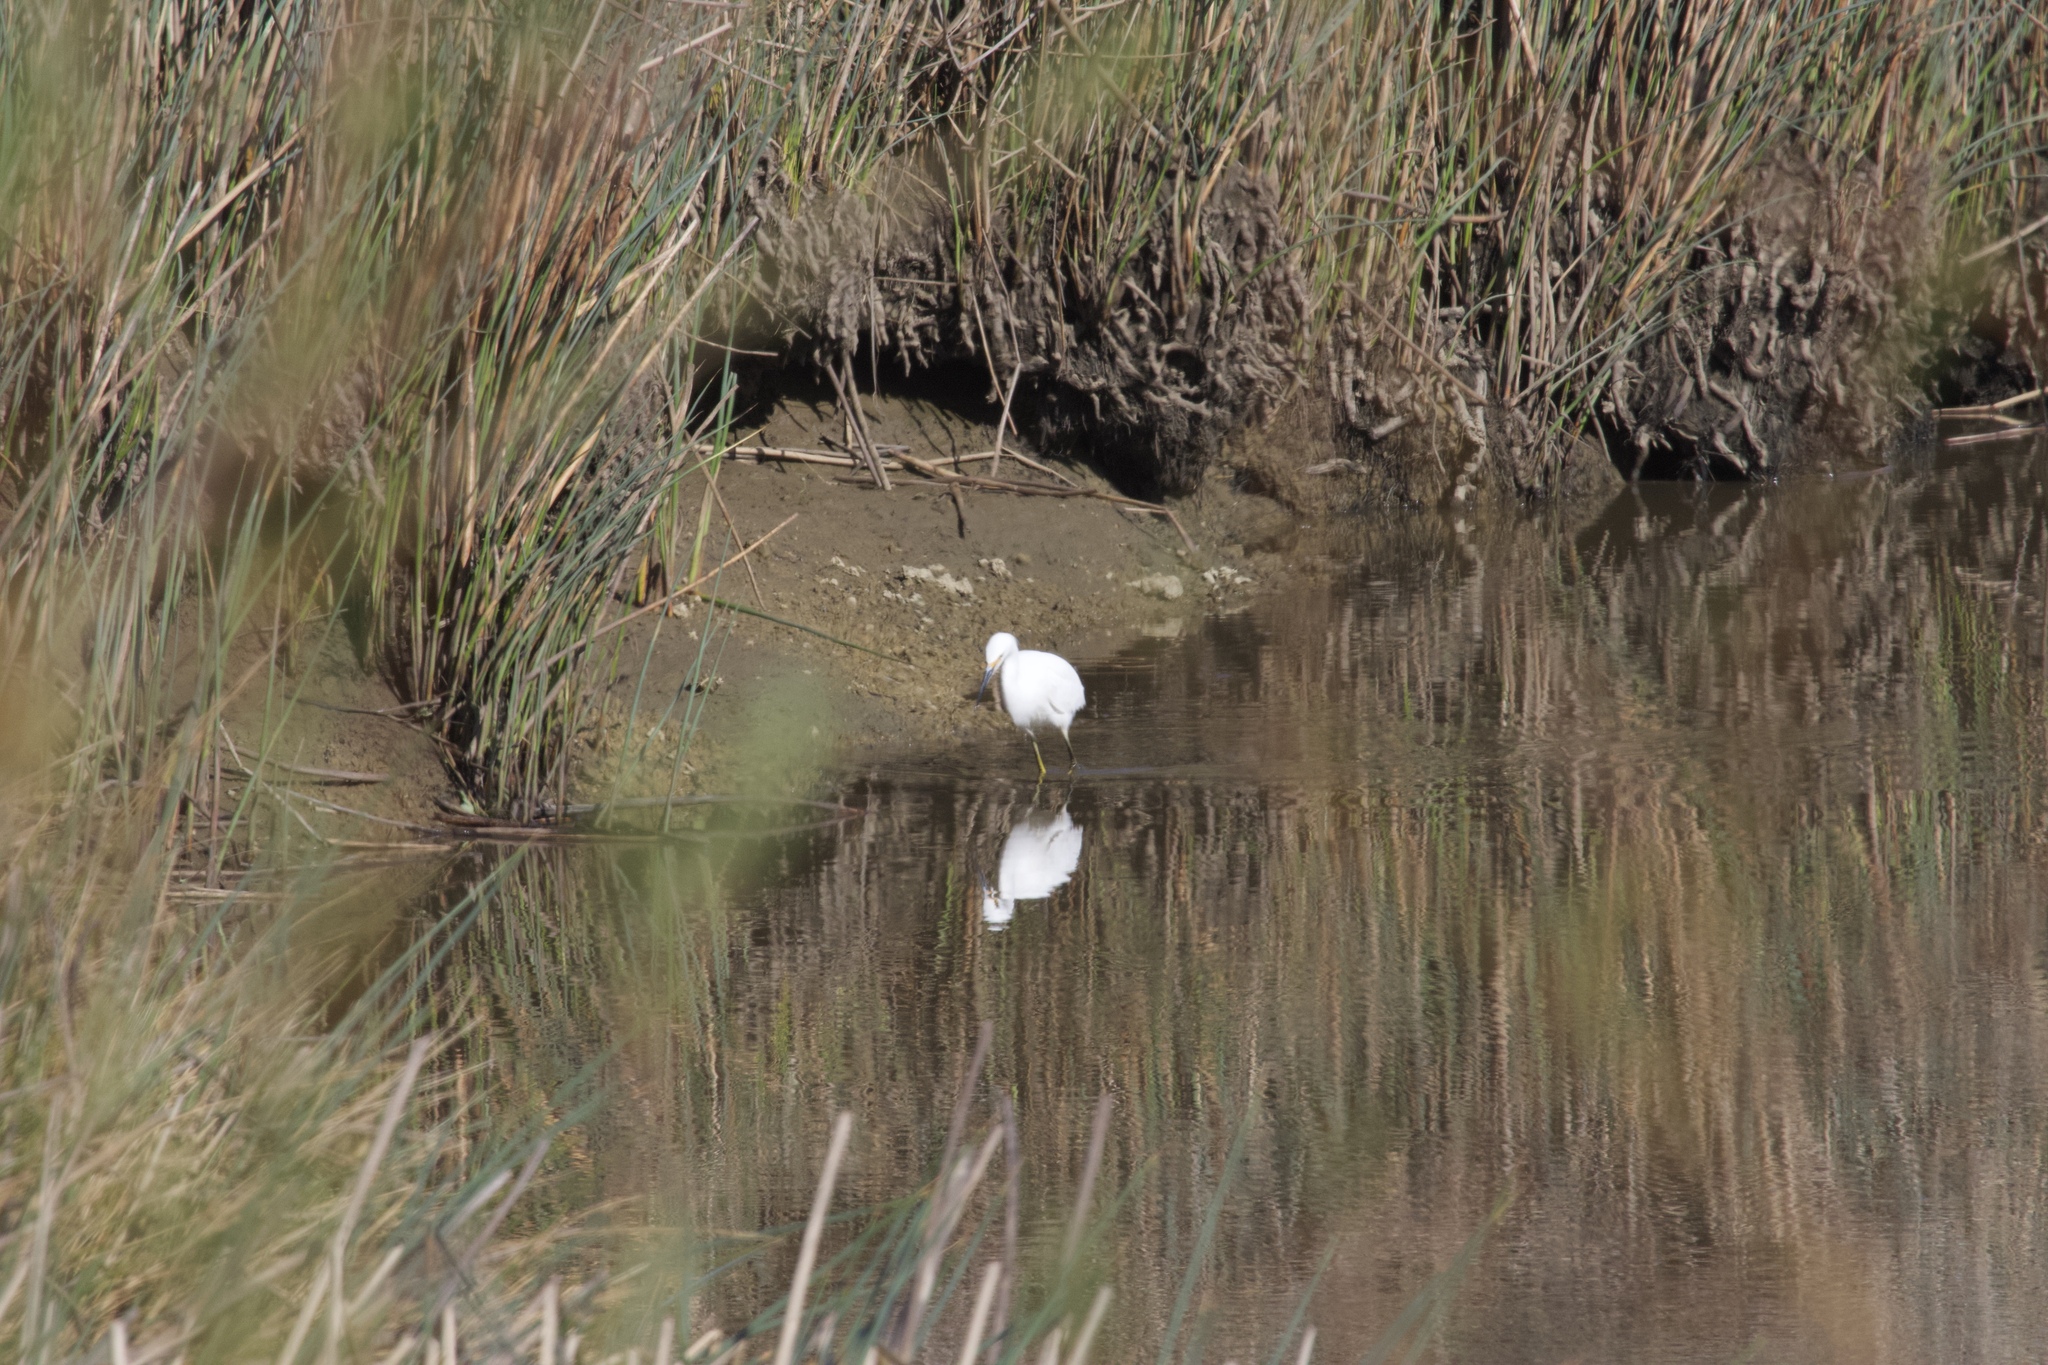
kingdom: Animalia
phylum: Chordata
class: Aves
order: Pelecaniformes
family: Ardeidae
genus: Egretta
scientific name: Egretta thula
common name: Snowy egret
